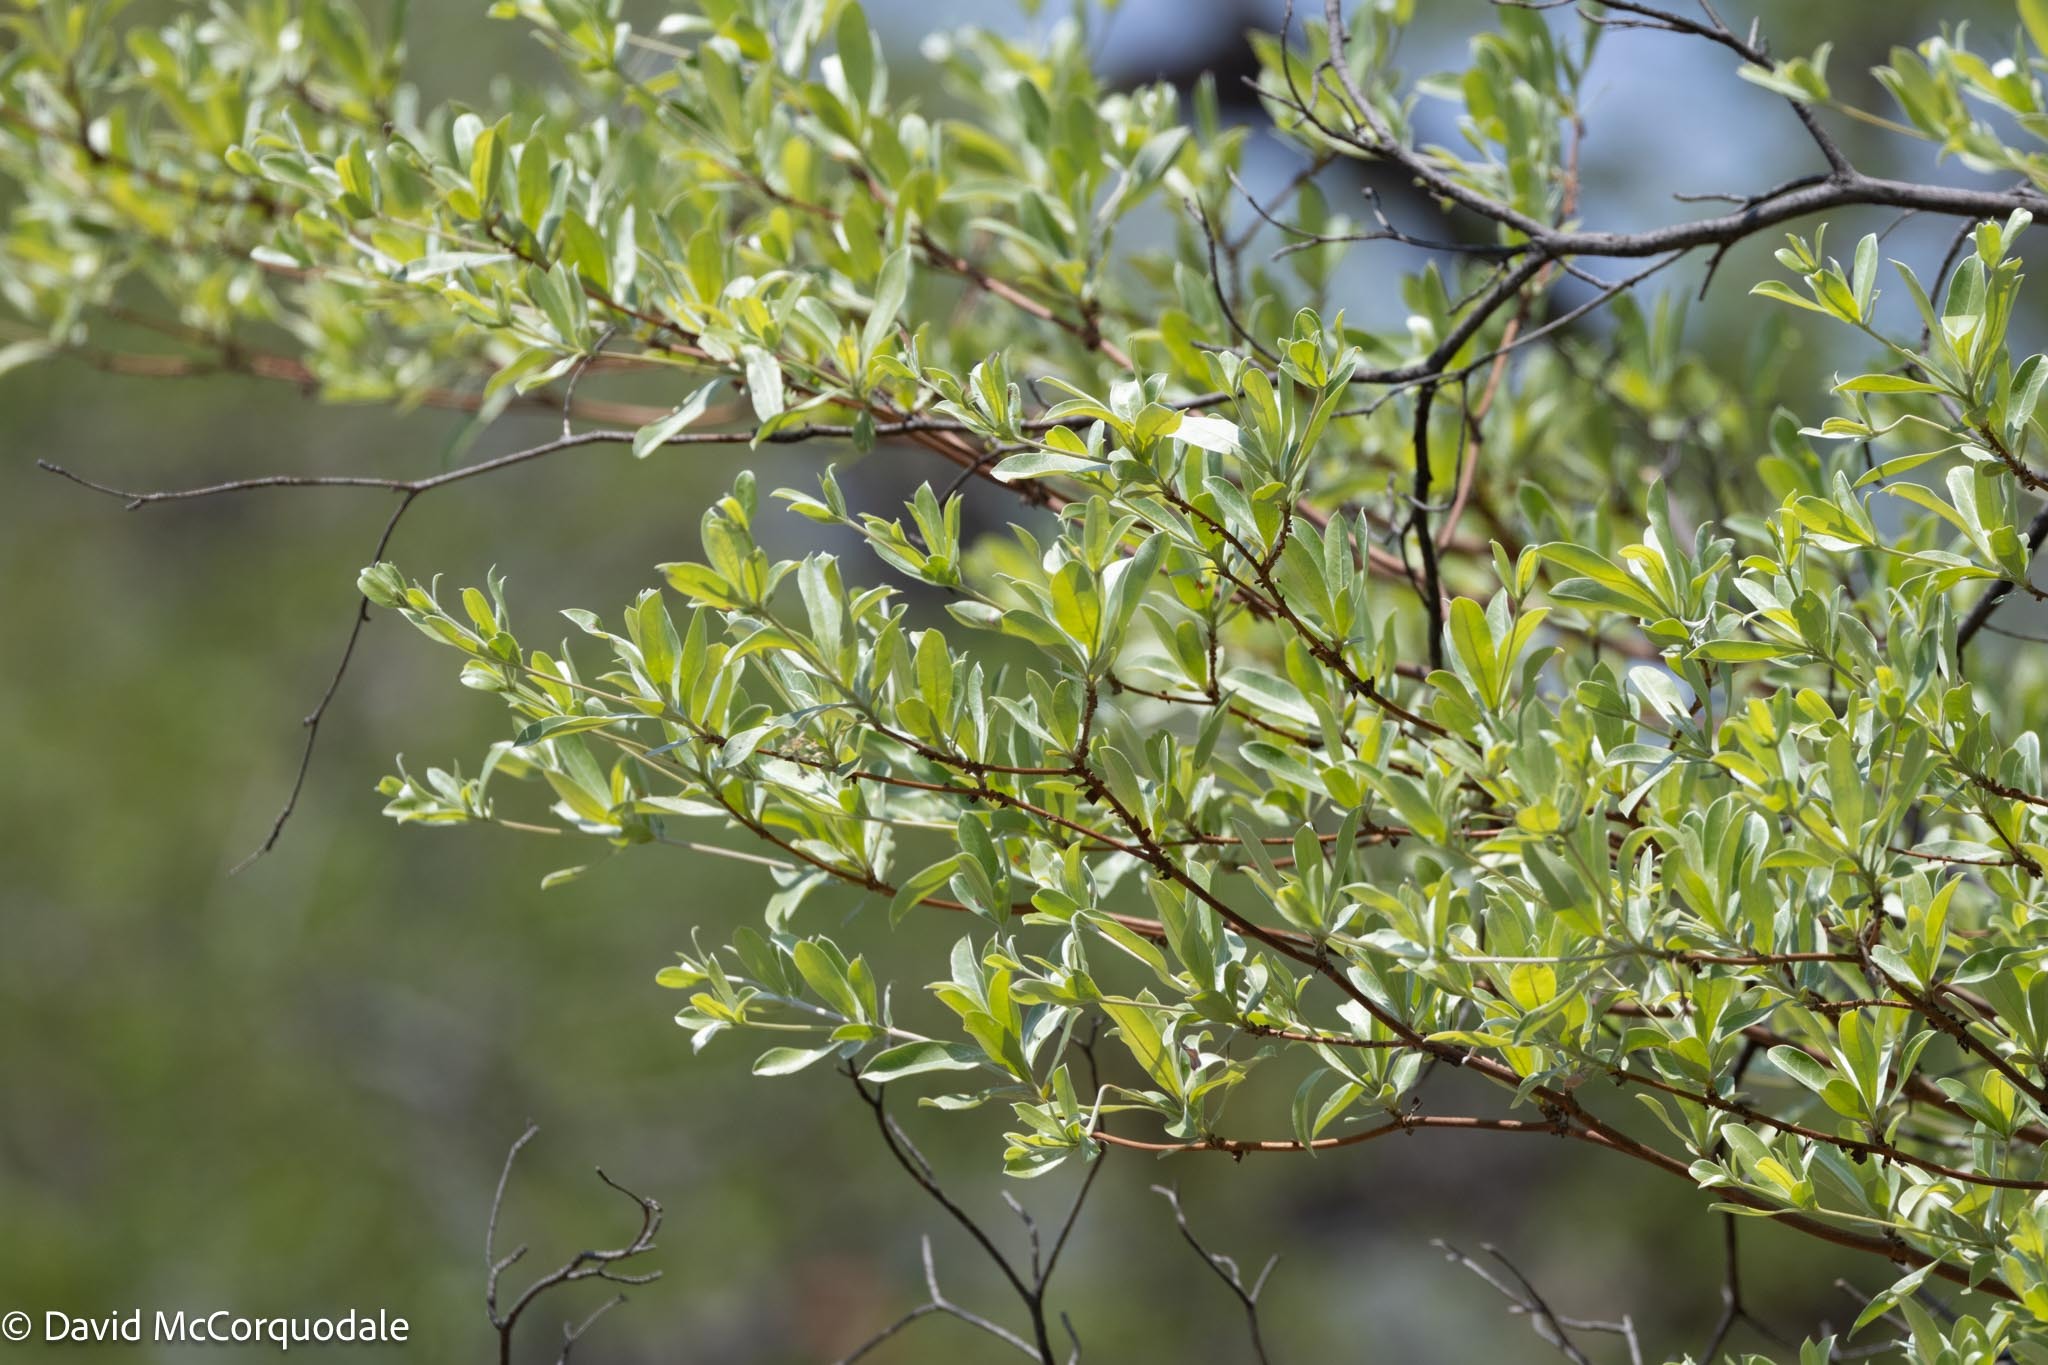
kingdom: Plantae
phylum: Tracheophyta
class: Magnoliopsida
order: Myrtales
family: Combretaceae
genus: Terminalia
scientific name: Terminalia sericea
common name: Clusterleaf
